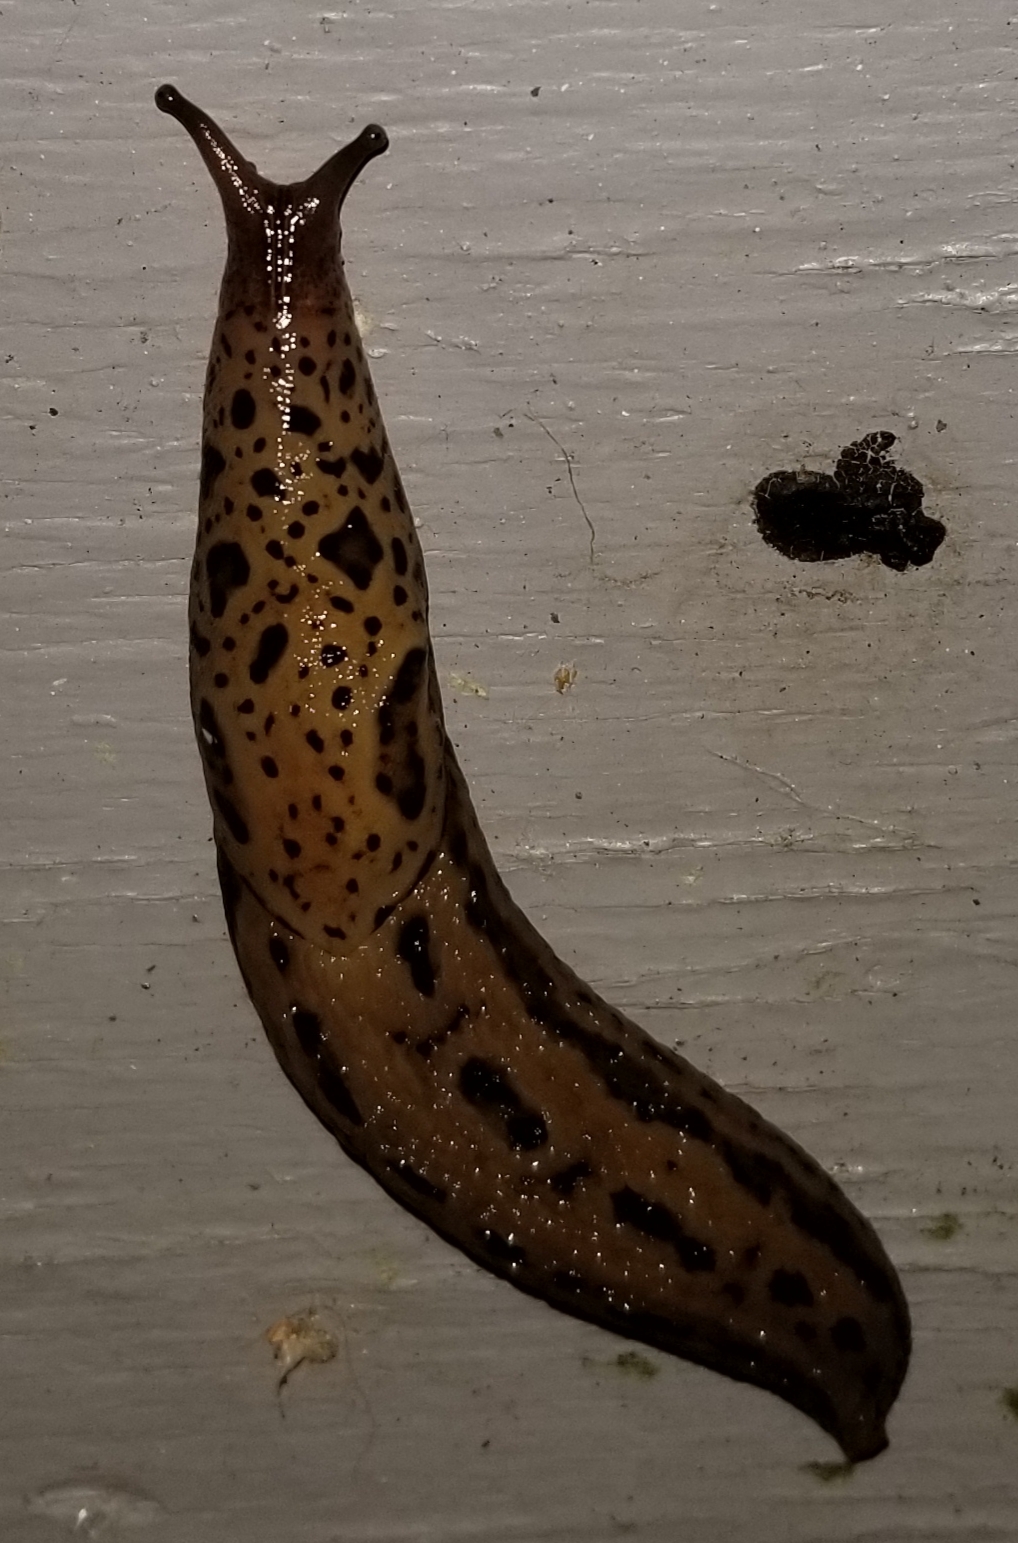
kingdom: Animalia
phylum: Mollusca
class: Gastropoda
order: Stylommatophora
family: Limacidae
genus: Limax
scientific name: Limax maximus
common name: Great grey slug
